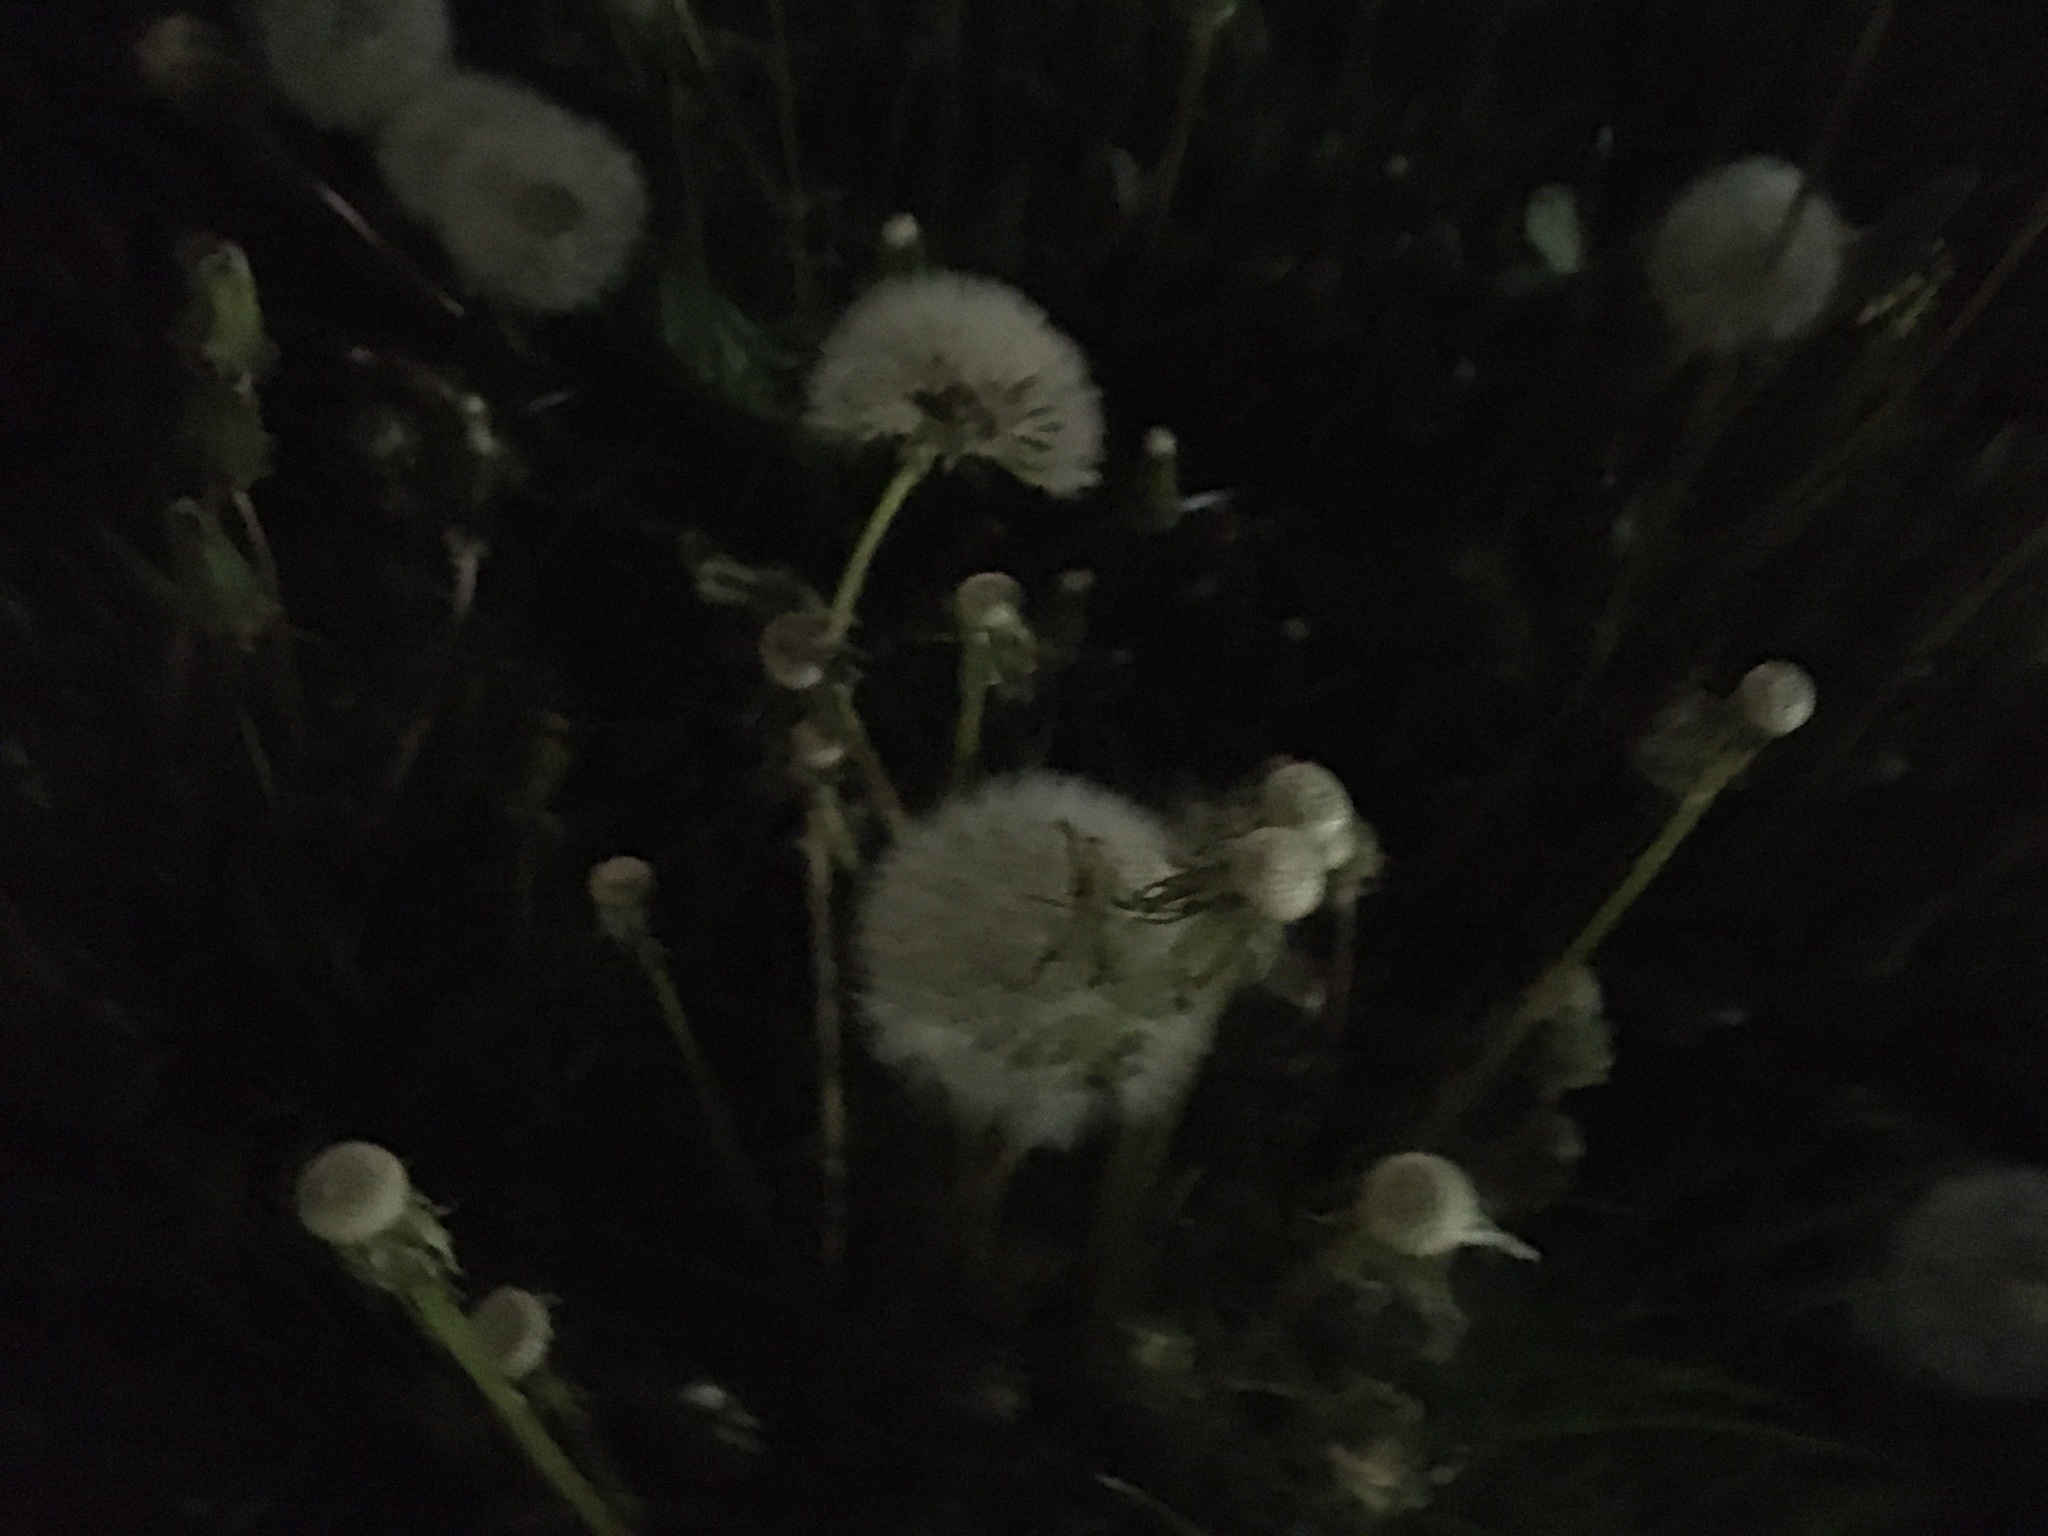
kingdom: Plantae
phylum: Tracheophyta
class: Magnoliopsida
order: Asterales
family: Asteraceae
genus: Taraxacum
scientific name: Taraxacum officinale
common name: Common dandelion
